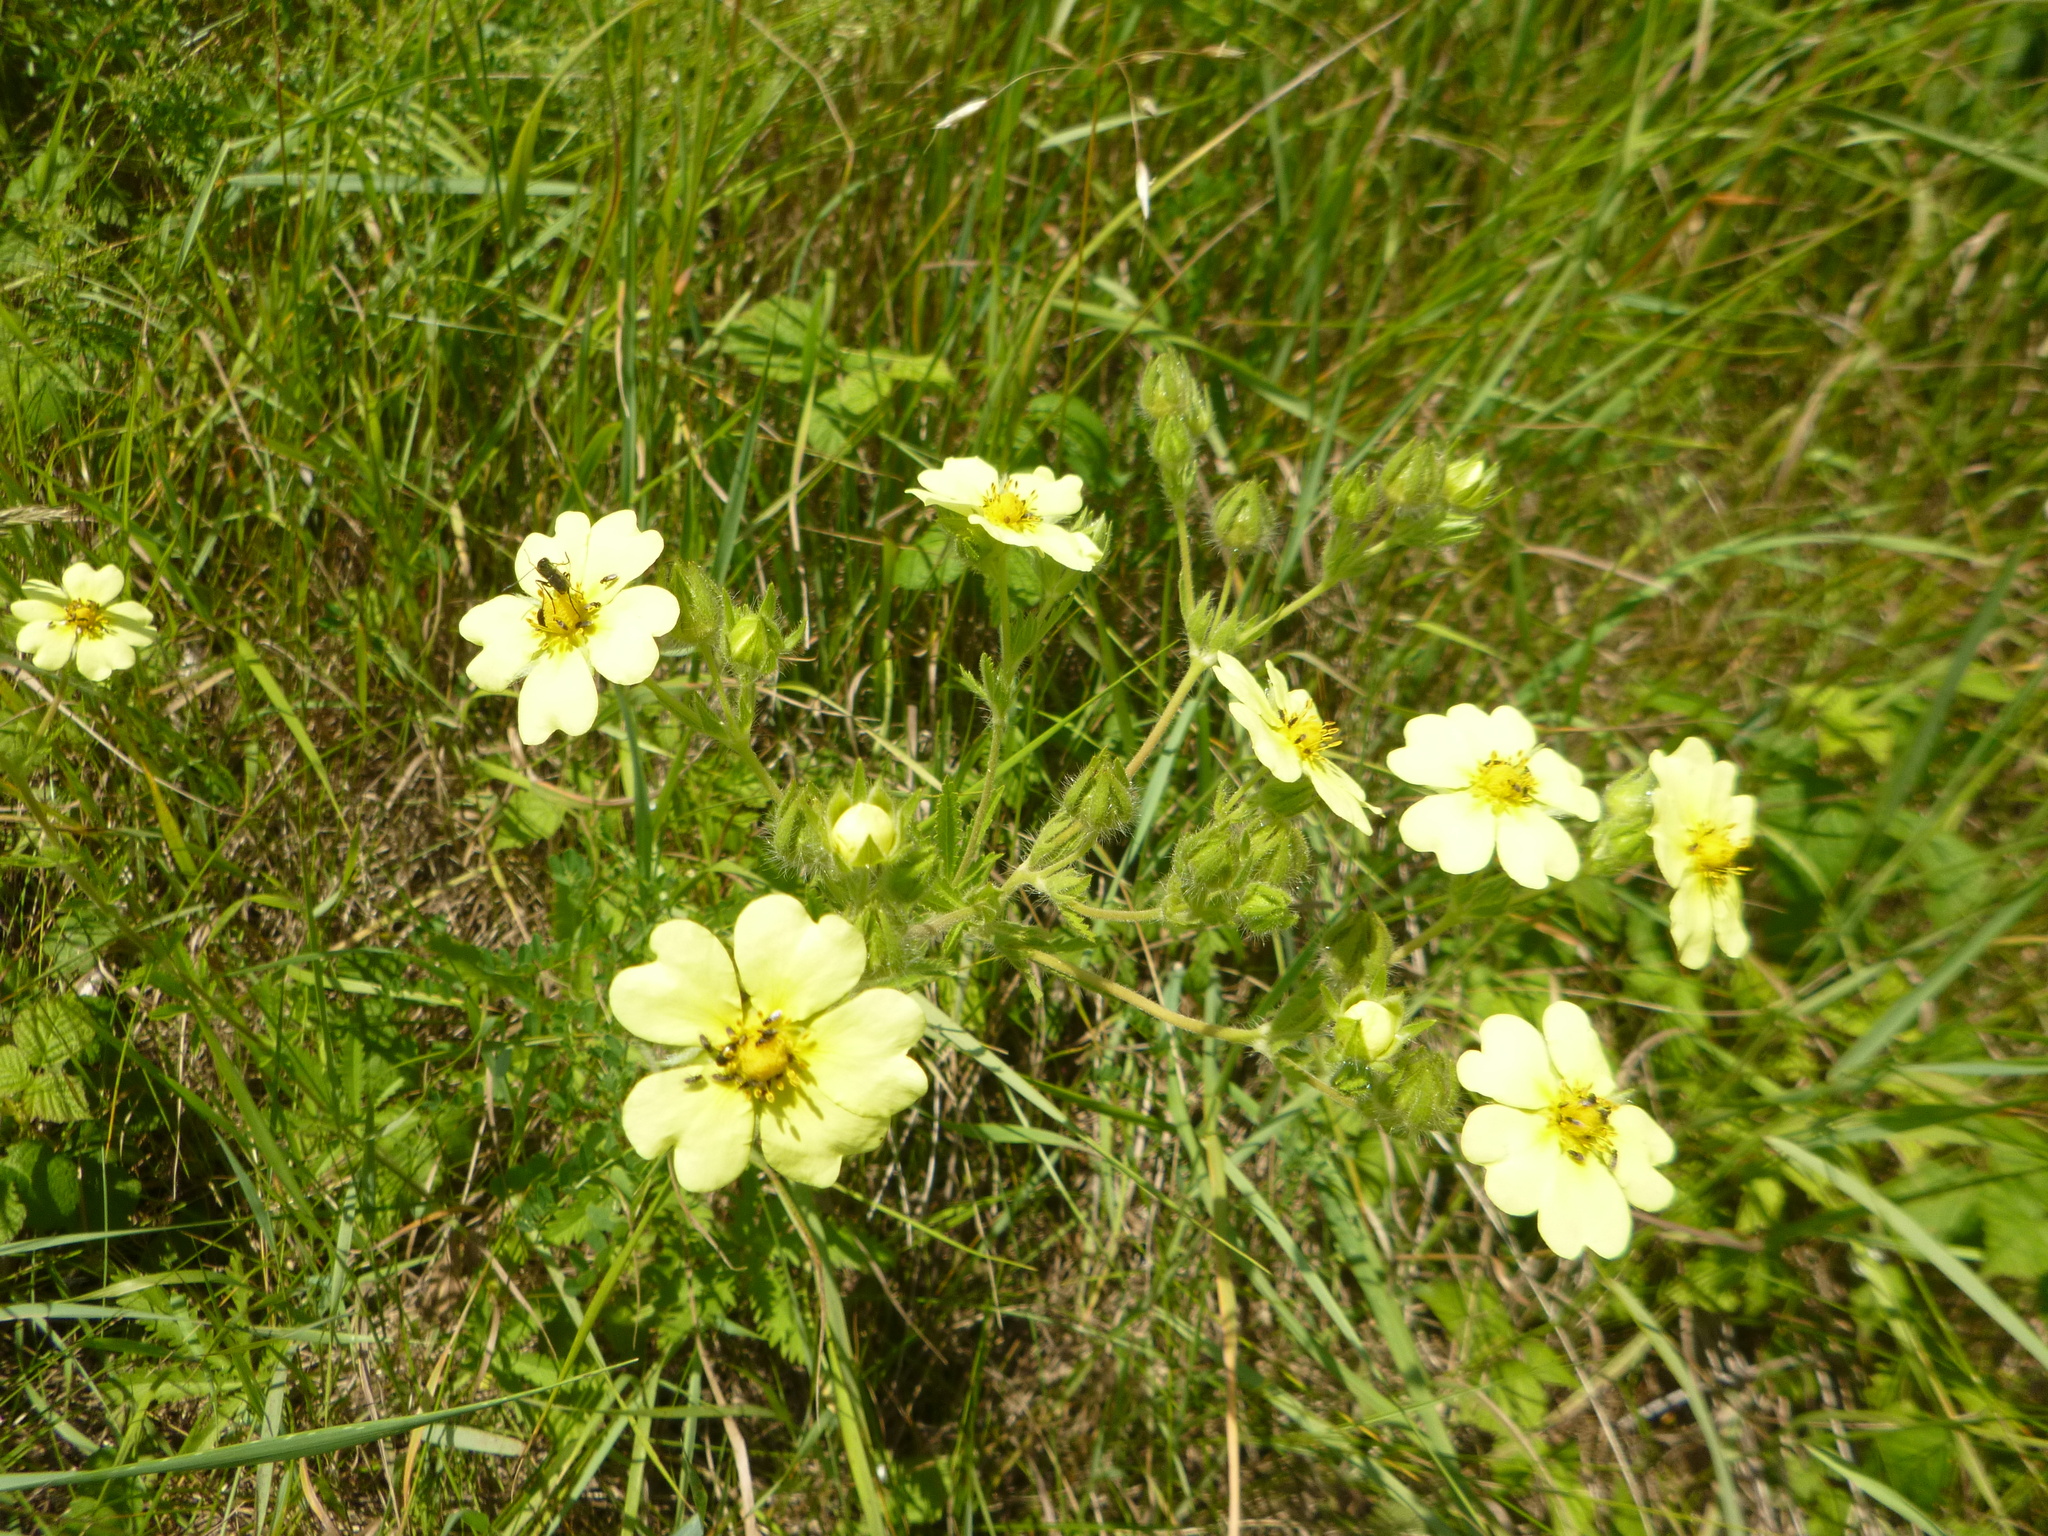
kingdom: Plantae
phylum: Tracheophyta
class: Magnoliopsida
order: Rosales
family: Rosaceae
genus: Potentilla
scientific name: Potentilla recta
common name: Sulphur cinquefoil
